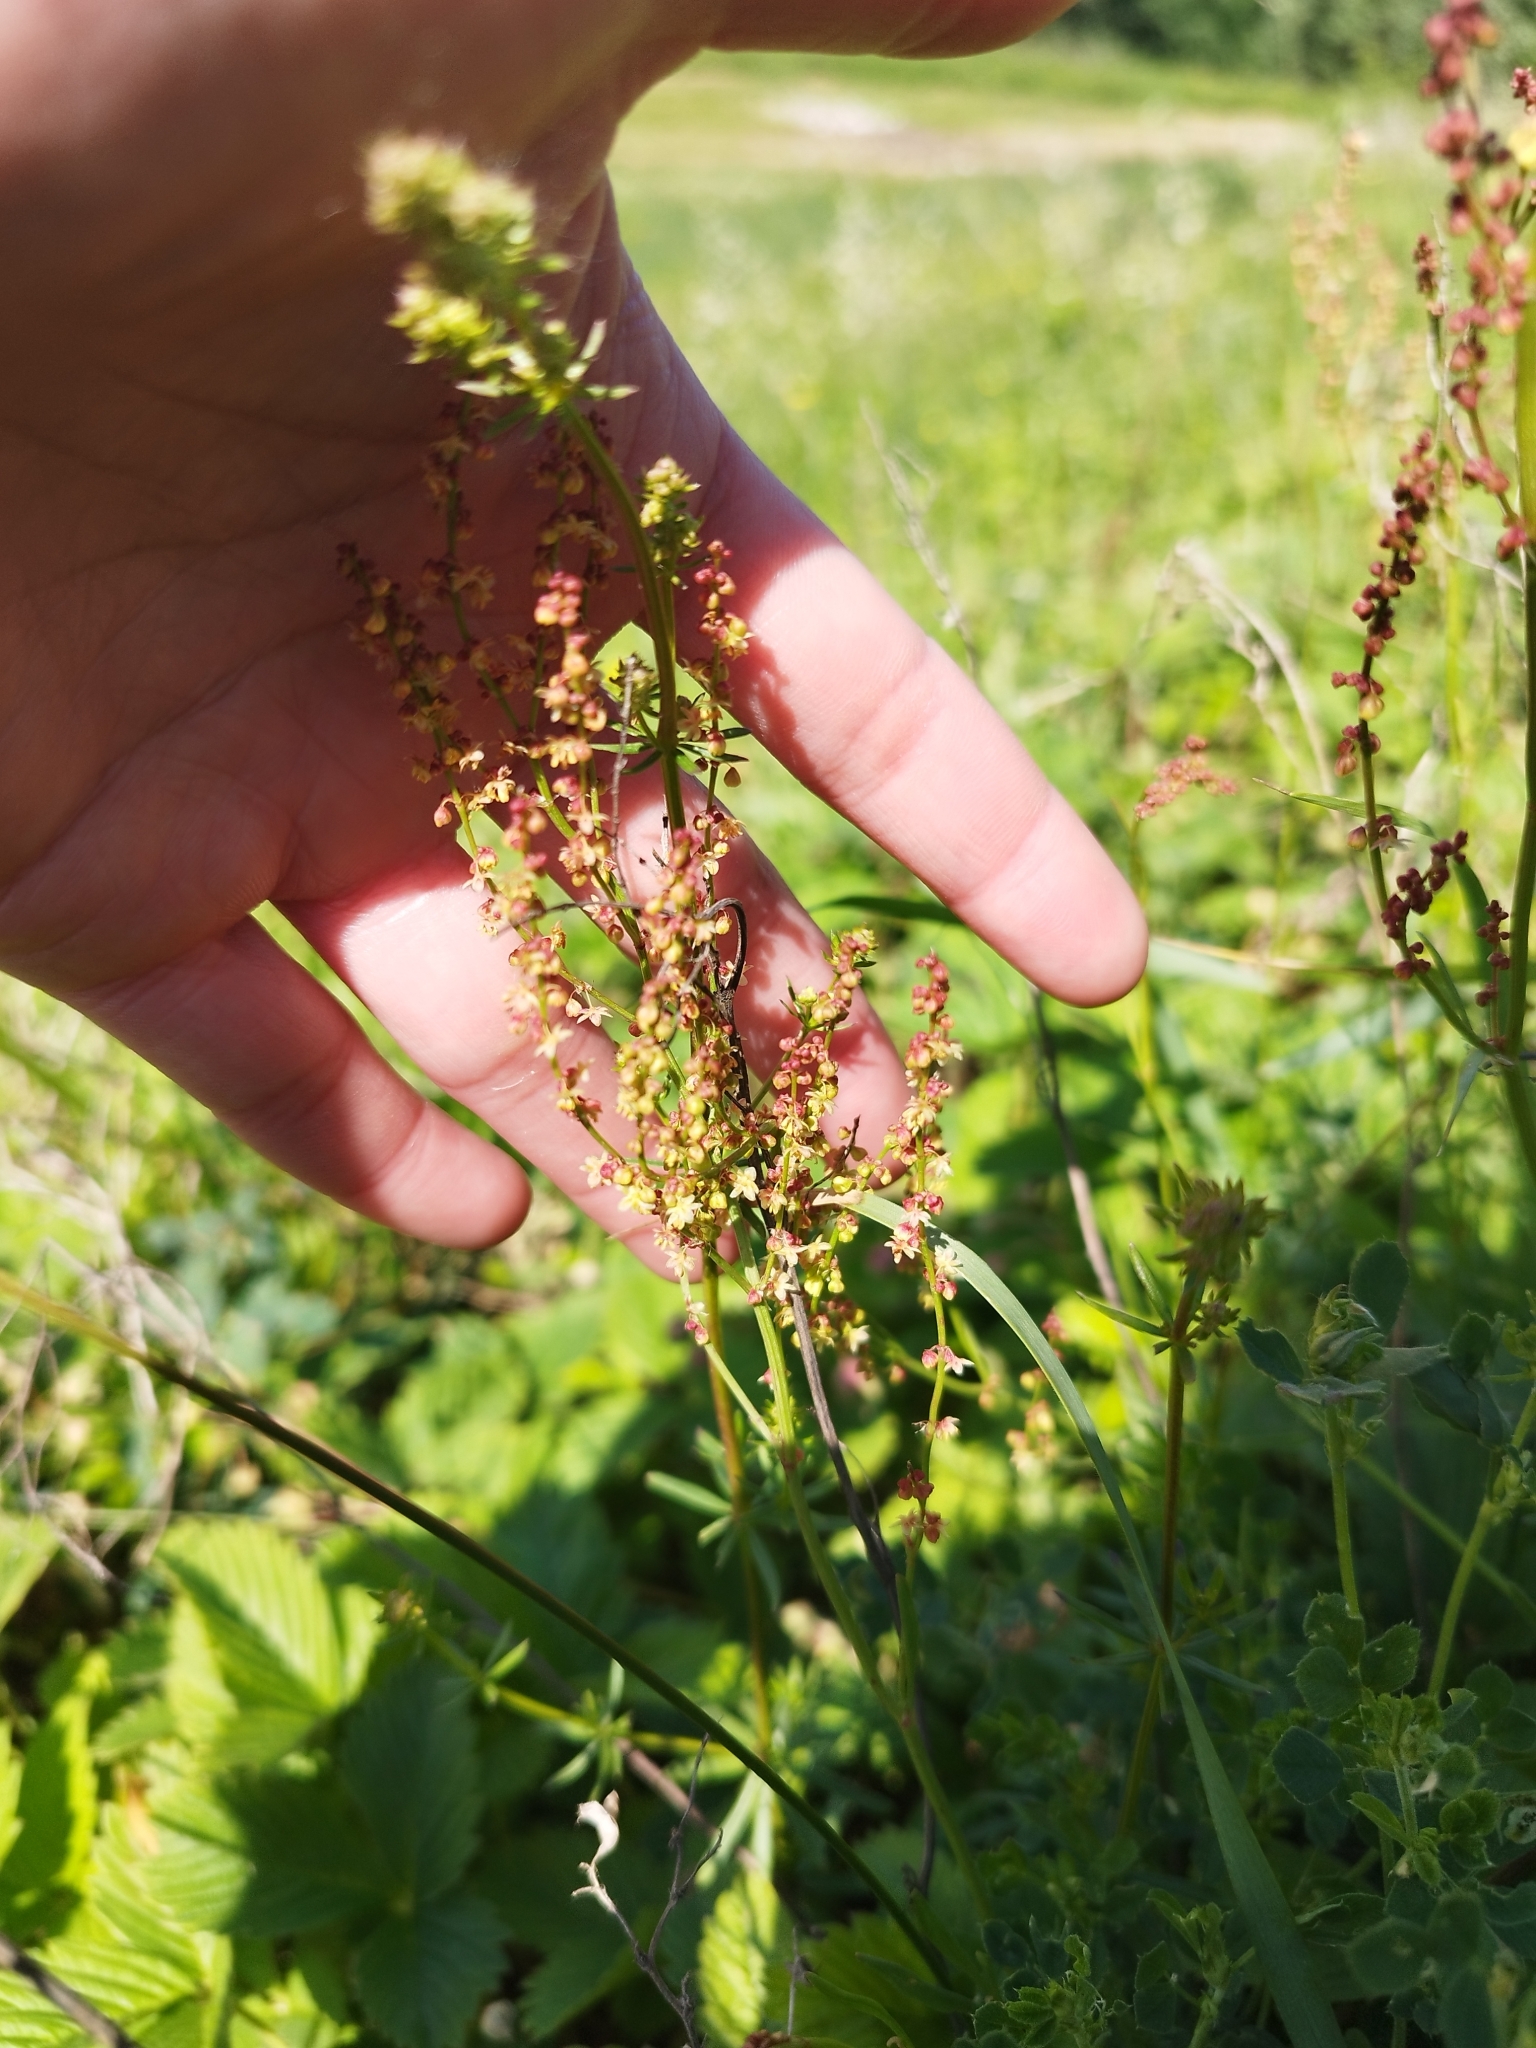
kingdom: Plantae
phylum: Tracheophyta
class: Magnoliopsida
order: Caryophyllales
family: Polygonaceae
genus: Rumex
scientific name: Rumex acetosella
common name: Common sheep sorrel
